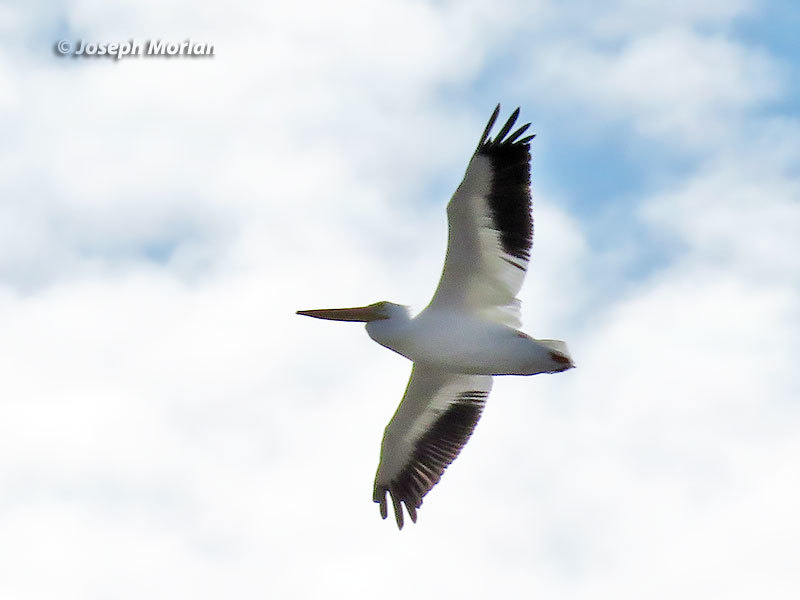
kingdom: Animalia
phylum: Chordata
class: Aves
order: Pelecaniformes
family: Pelecanidae
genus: Pelecanus
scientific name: Pelecanus erythrorhynchos
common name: American white pelican
